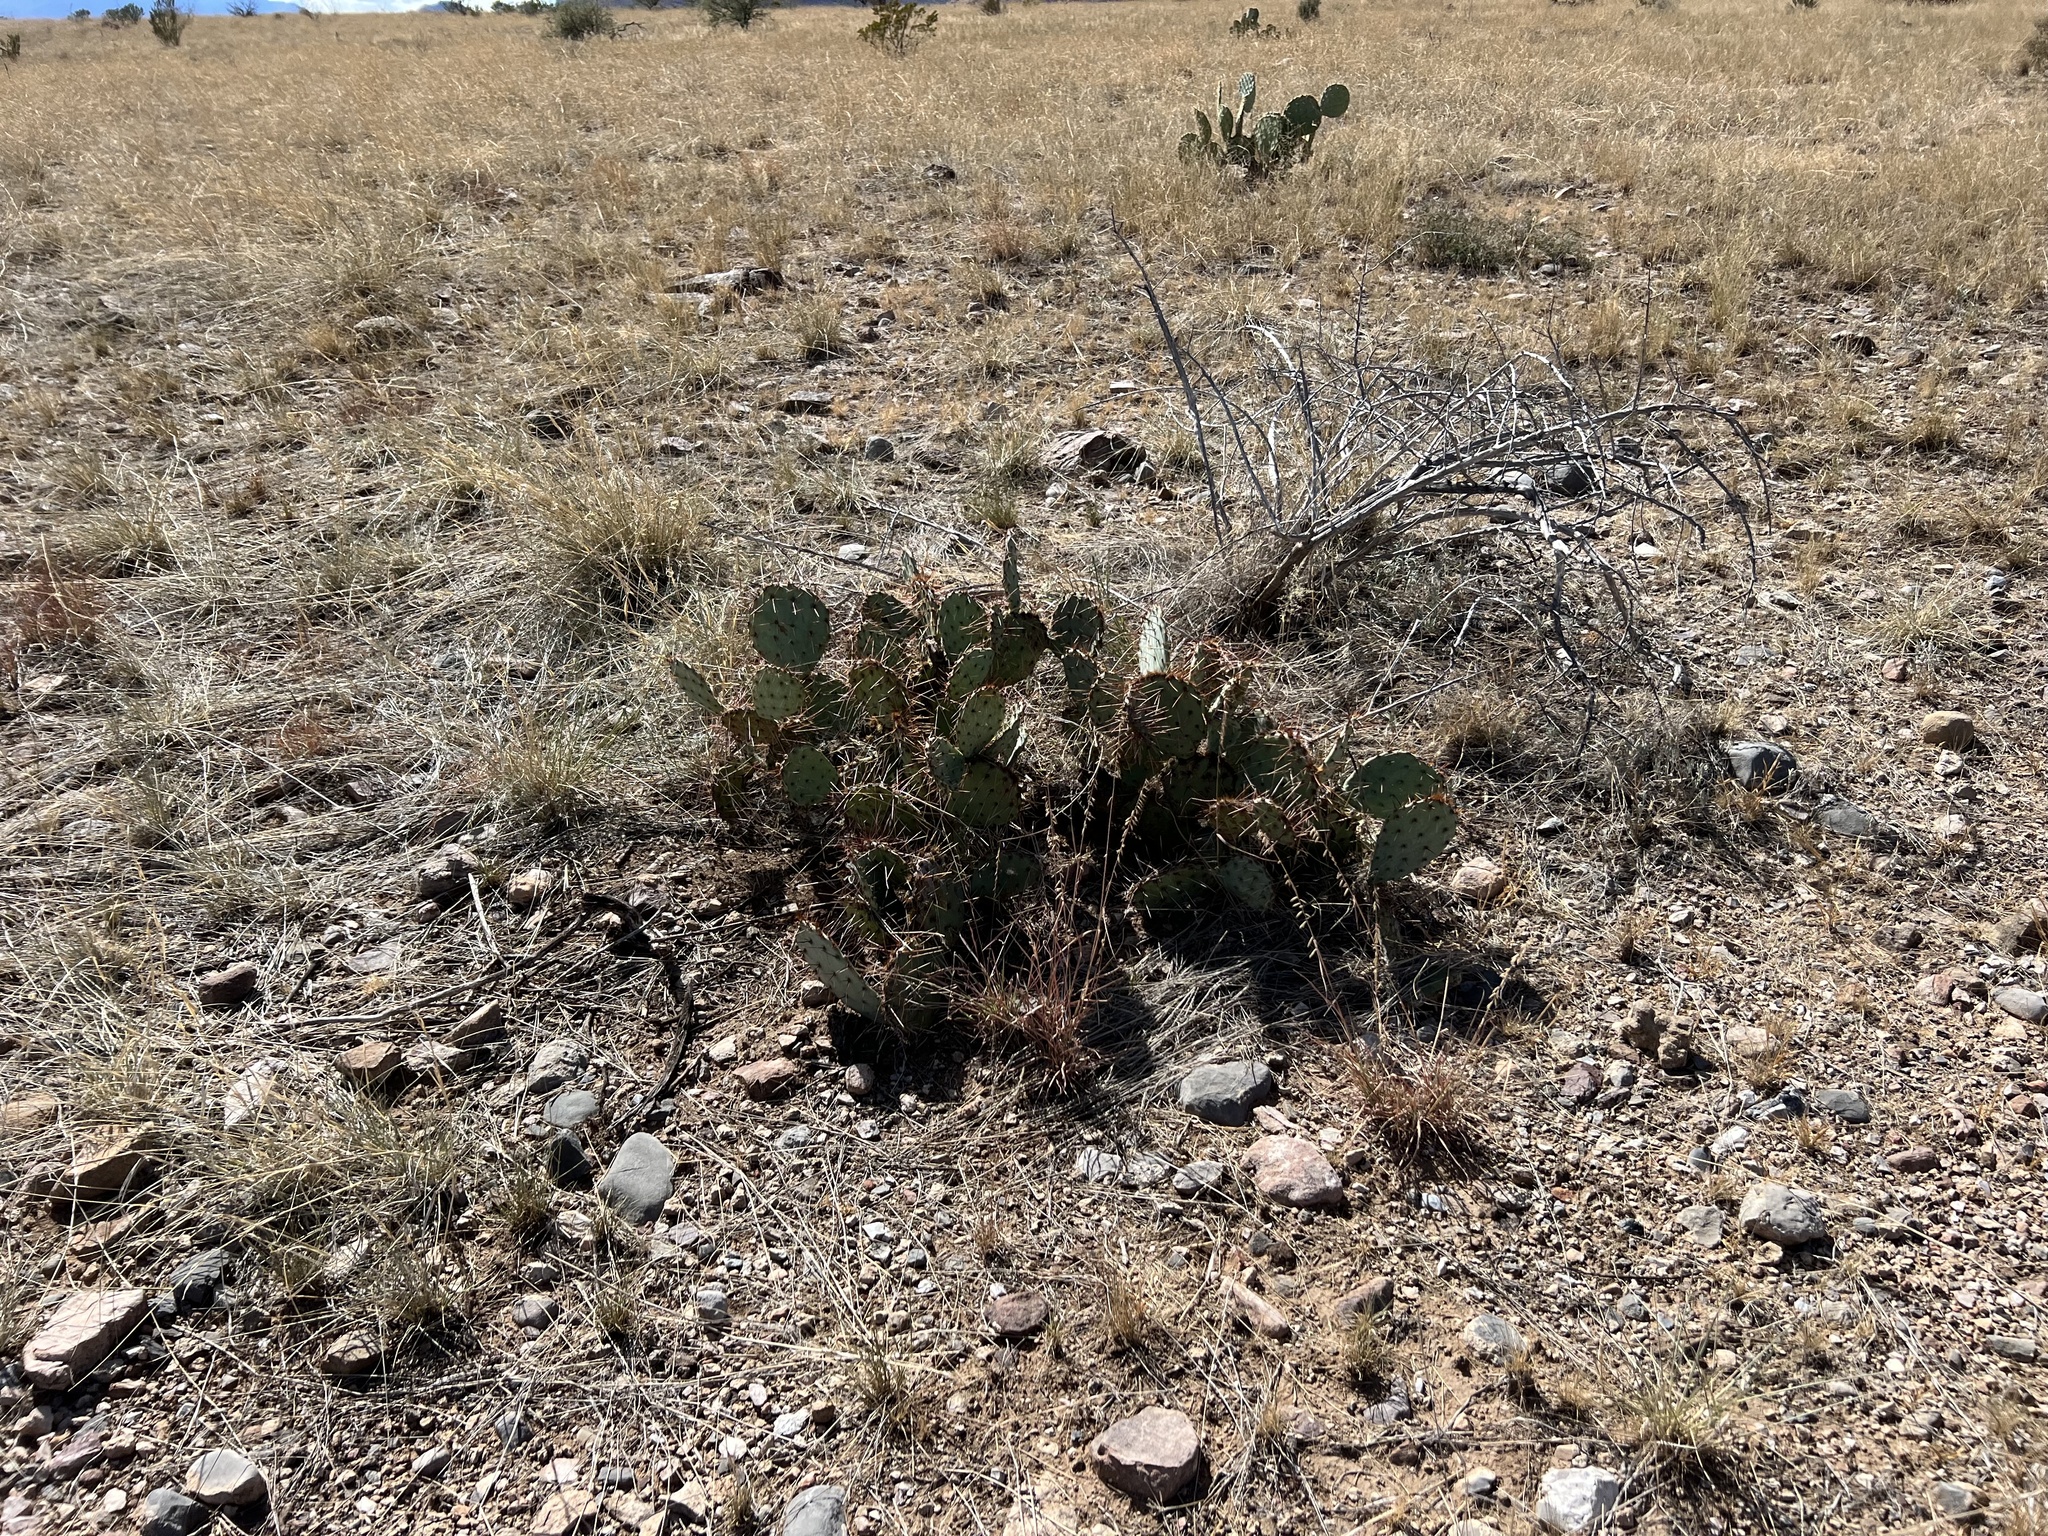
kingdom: Plantae
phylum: Tracheophyta
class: Magnoliopsida
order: Caryophyllales
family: Cactaceae
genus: Opuntia
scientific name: Opuntia phaeacantha
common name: New mexico prickly-pear
